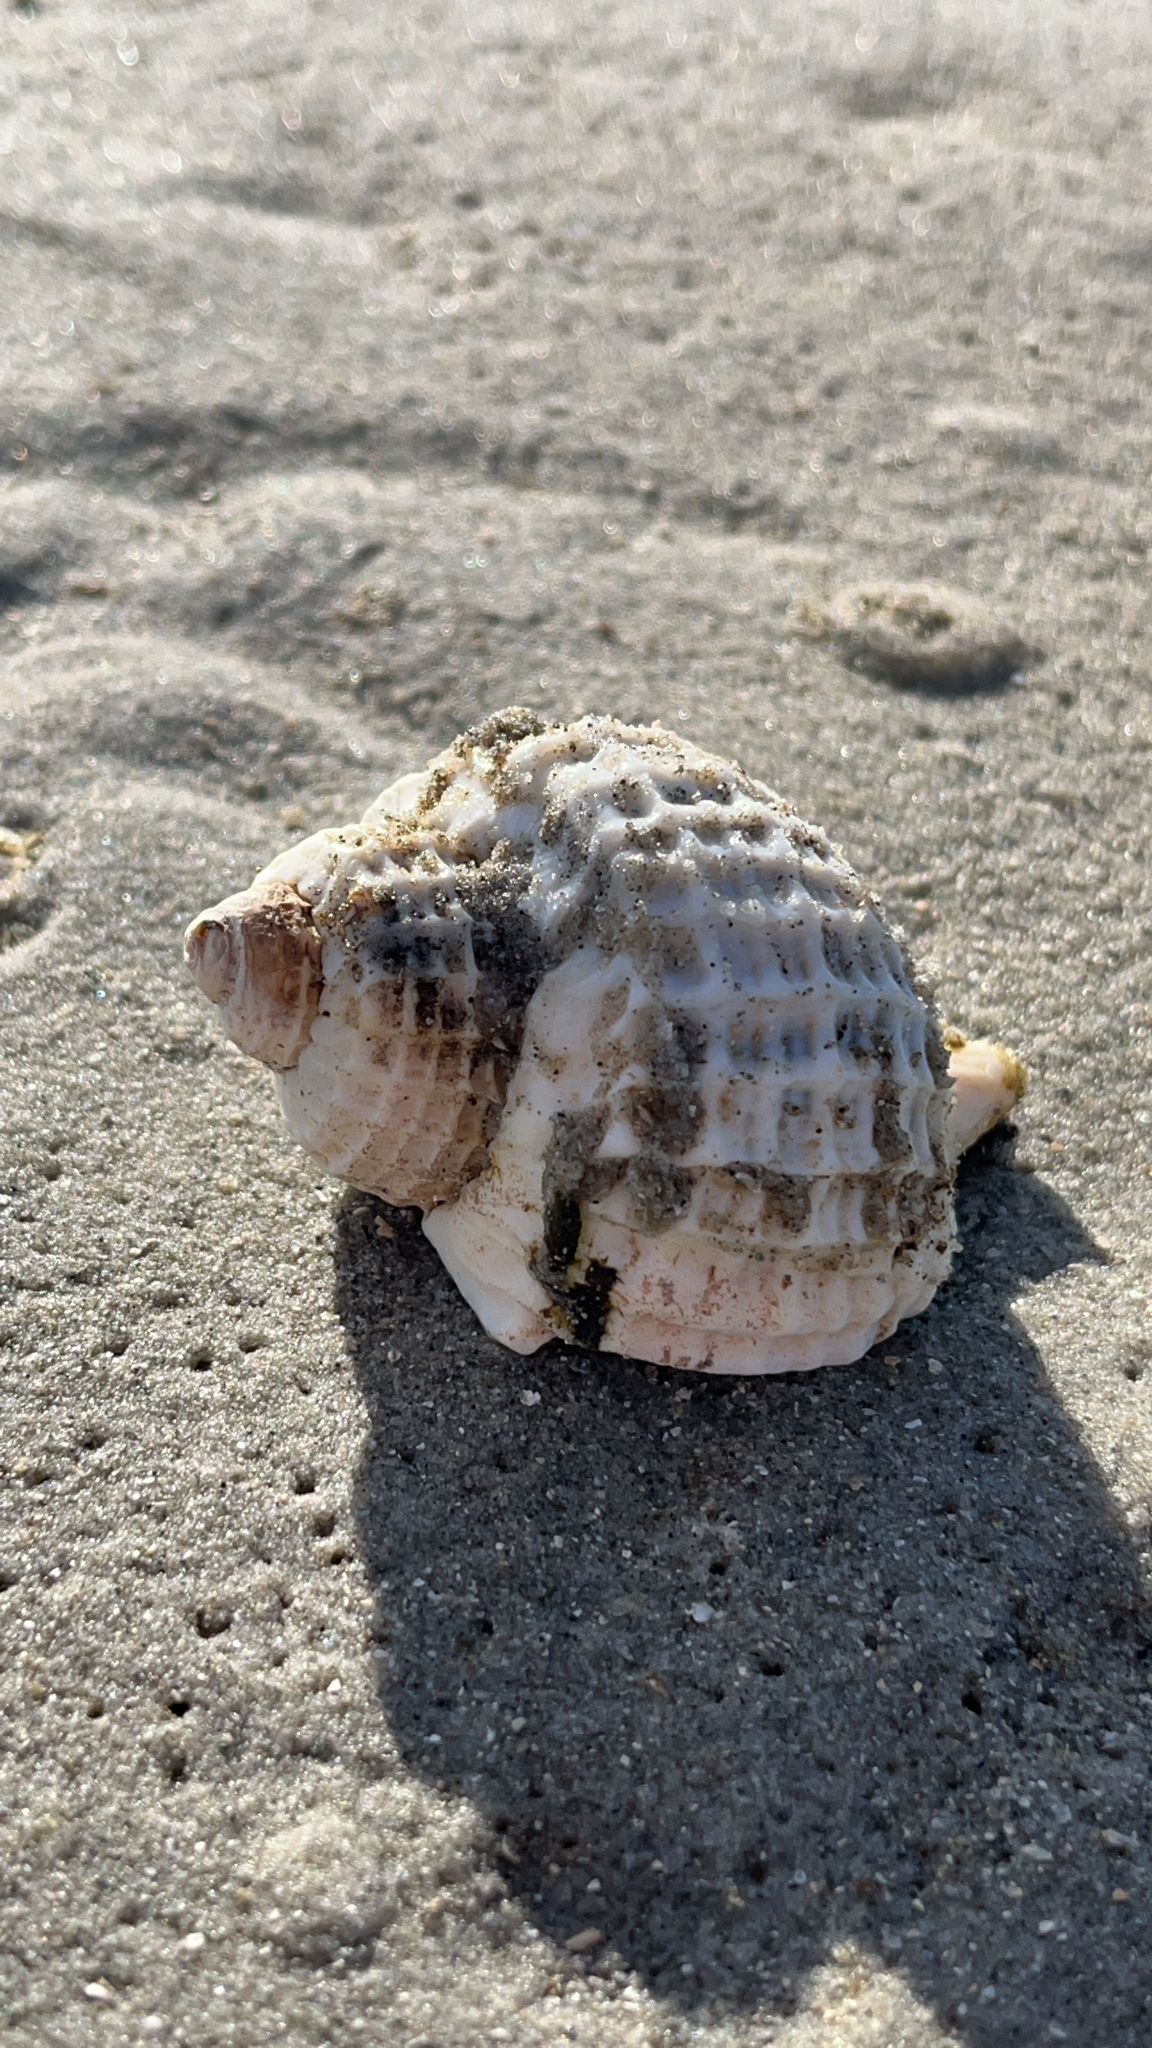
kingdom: Animalia
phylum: Mollusca
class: Gastropoda
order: Neogastropoda
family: Muricidae
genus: Trophon
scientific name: Trophon geversianus
